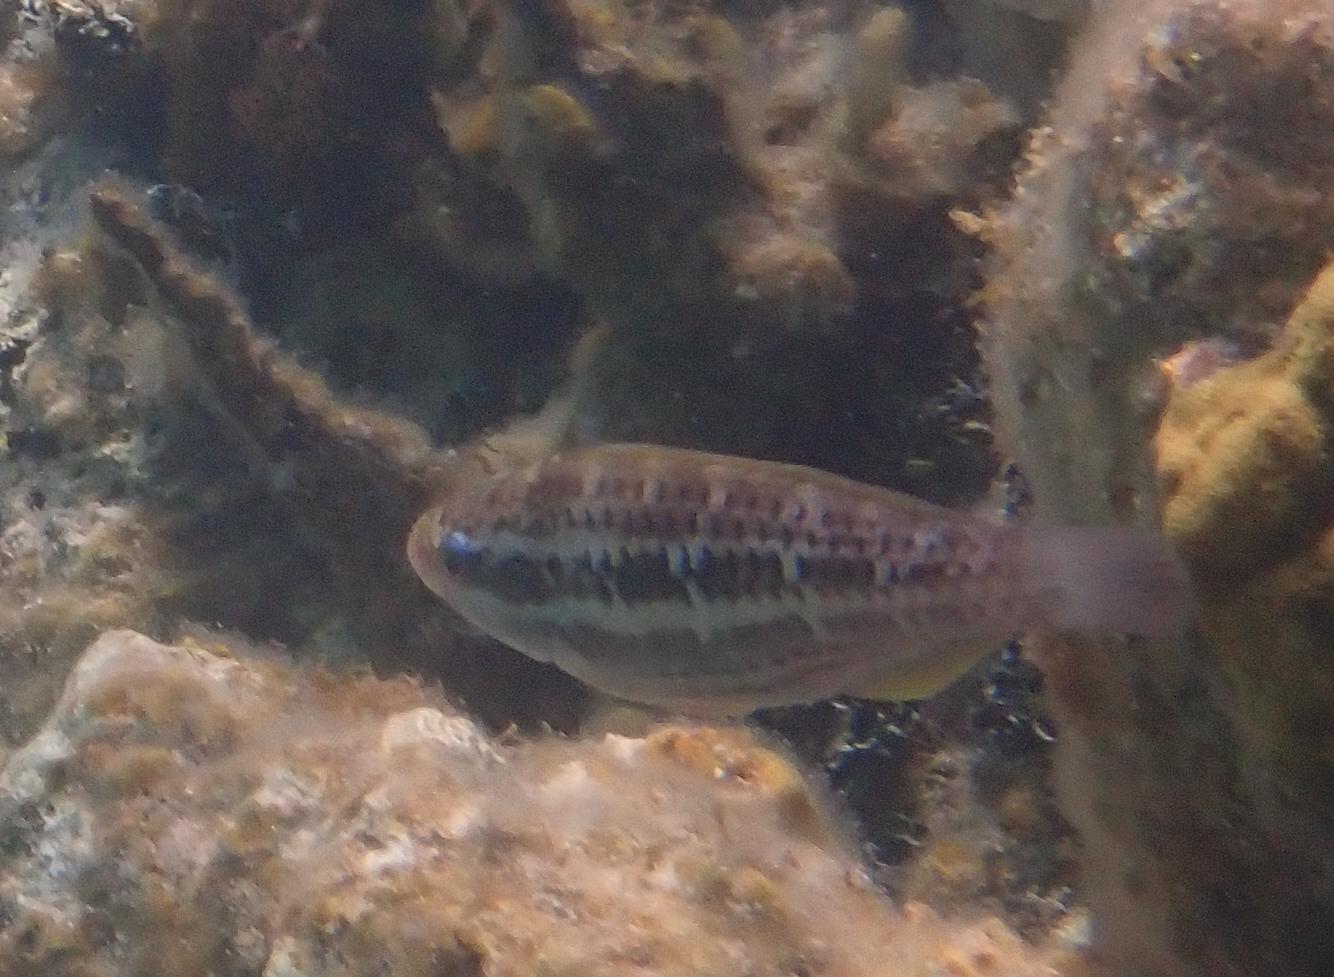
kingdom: Animalia
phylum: Chordata
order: Perciformes
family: Scaridae
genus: Scarus
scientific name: Scarus iseri
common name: Striped parrotfish
